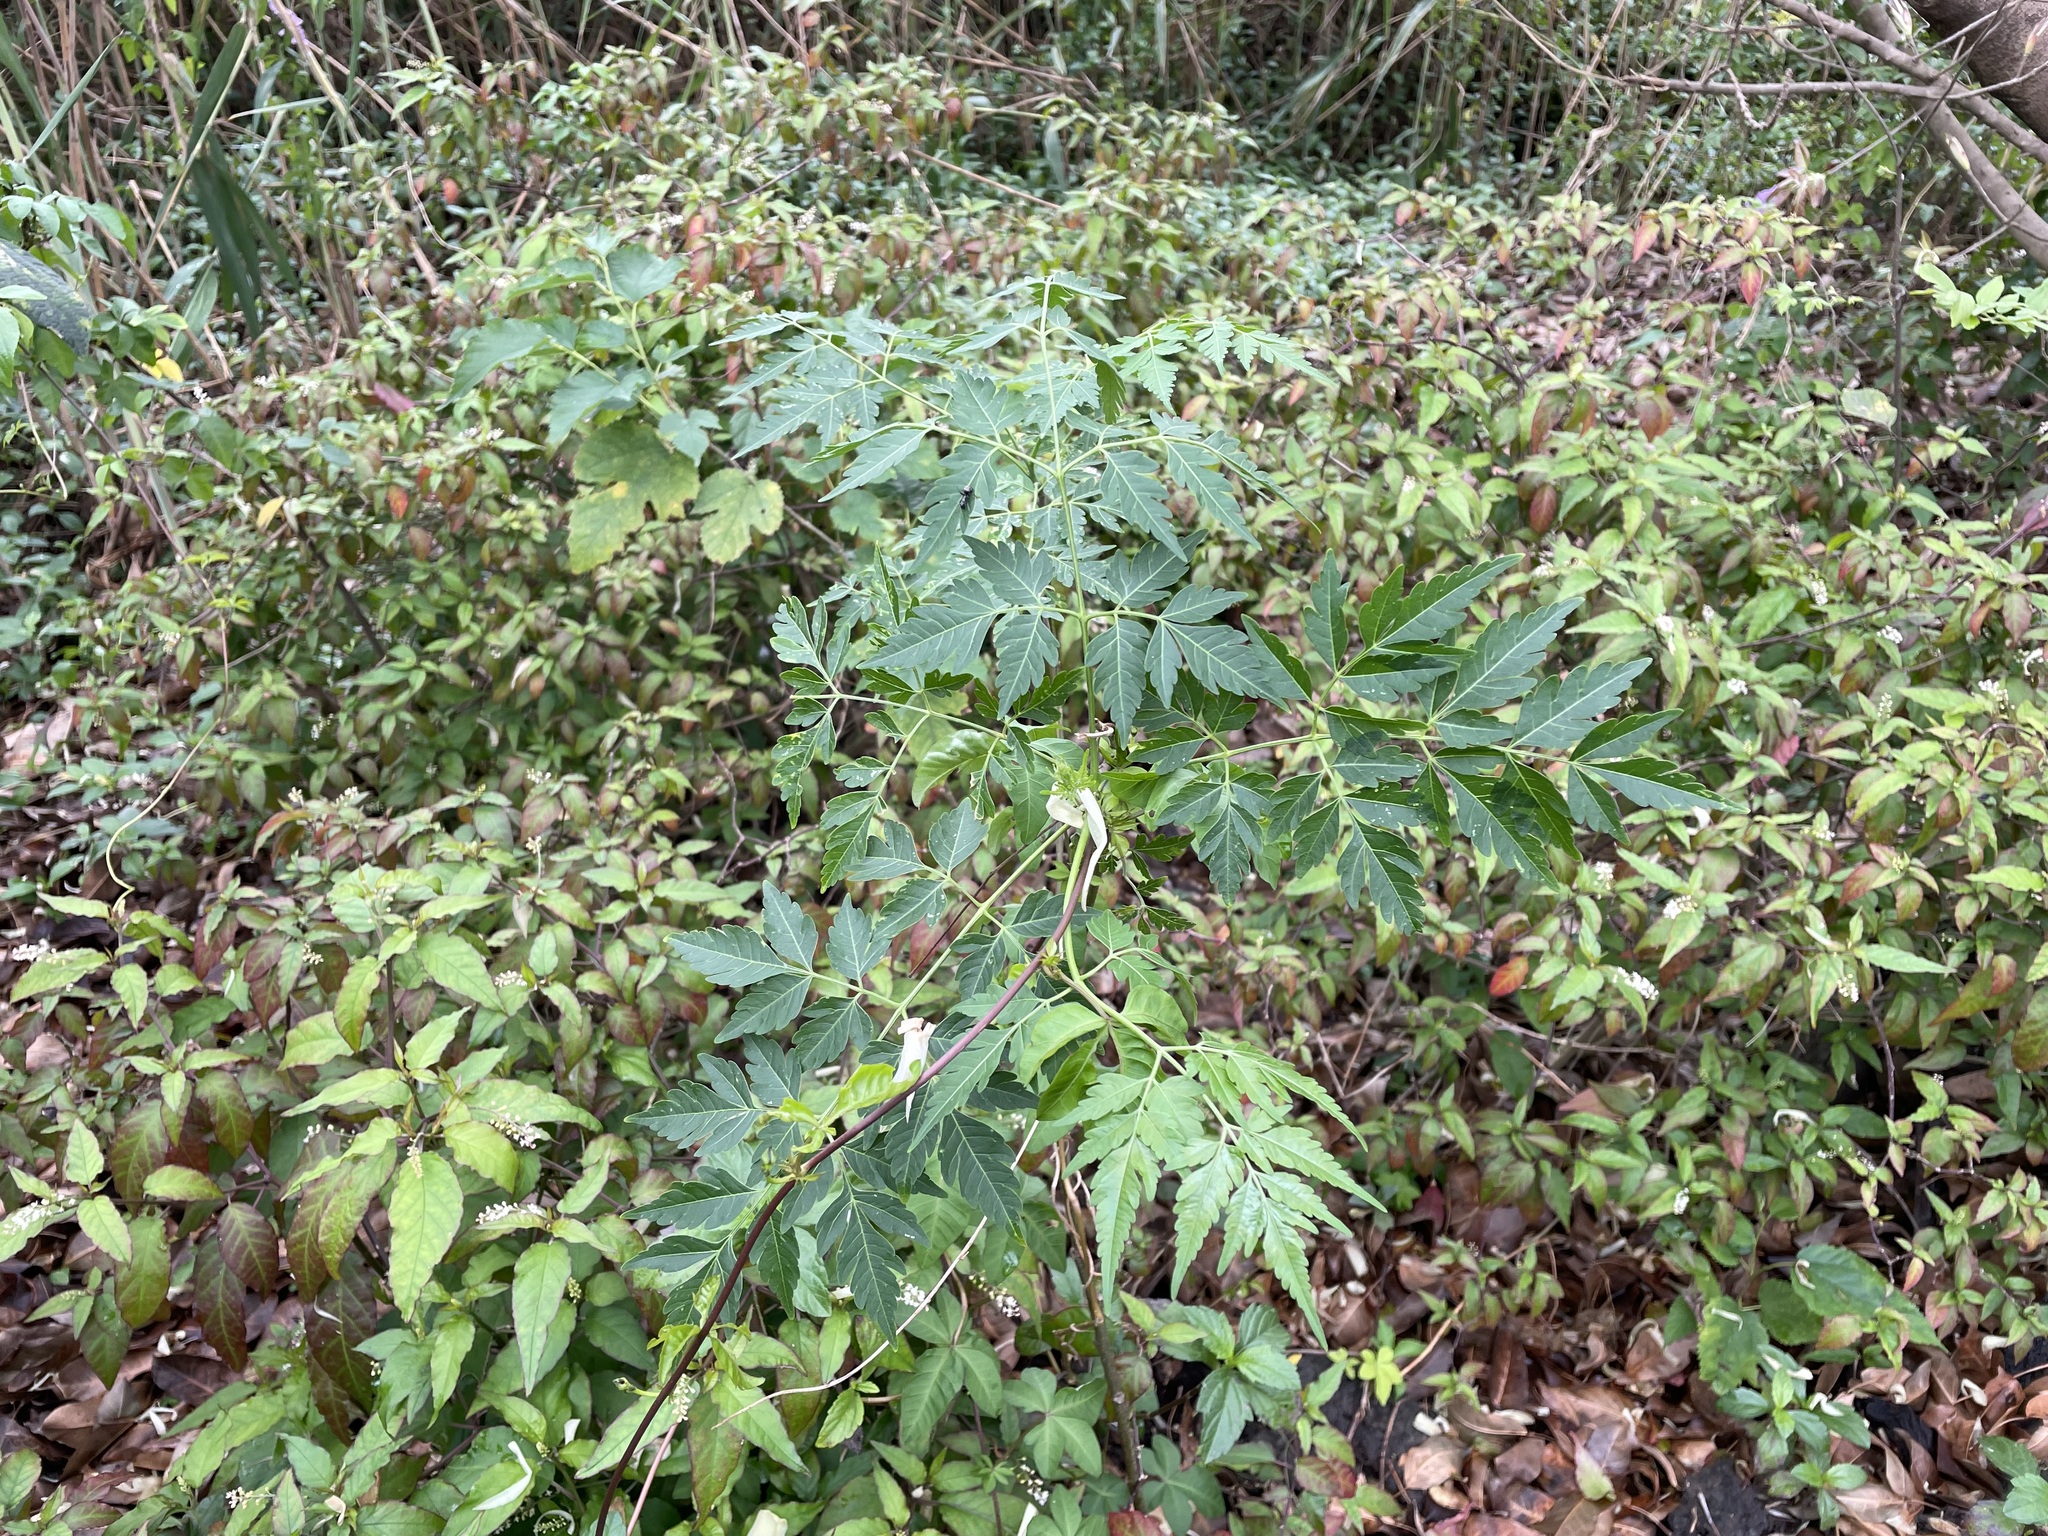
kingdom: Plantae
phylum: Tracheophyta
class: Magnoliopsida
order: Sapindales
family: Meliaceae
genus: Melia
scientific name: Melia azedarach
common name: Chinaberrytree
